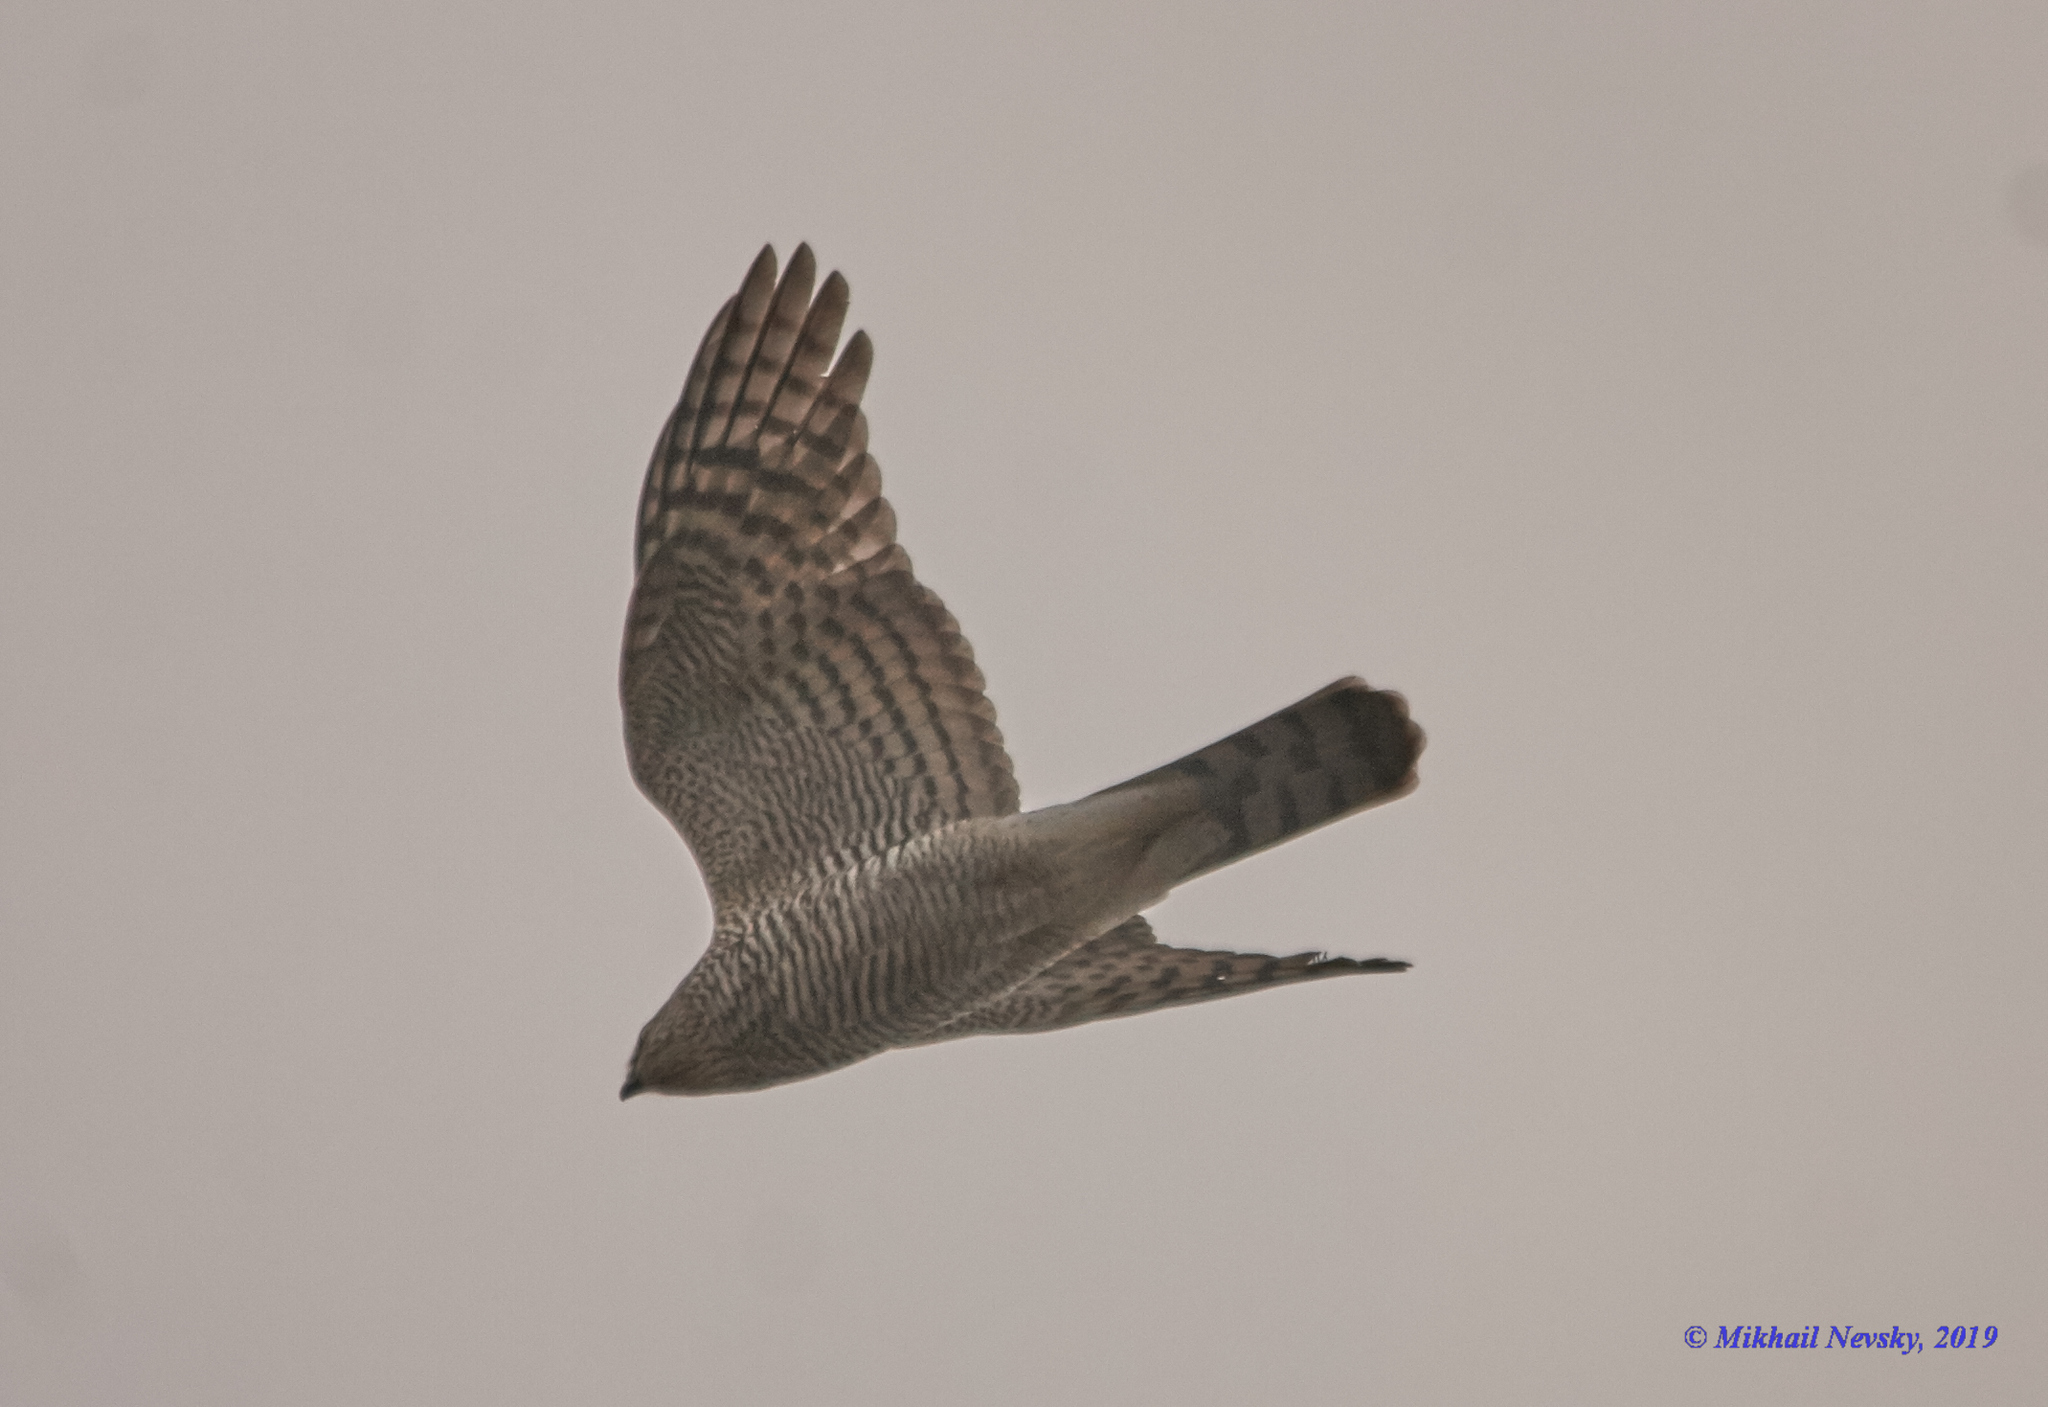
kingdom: Animalia
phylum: Chordata
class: Aves
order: Accipitriformes
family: Accipitridae
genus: Accipiter
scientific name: Accipiter nisus
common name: Eurasian sparrowhawk
